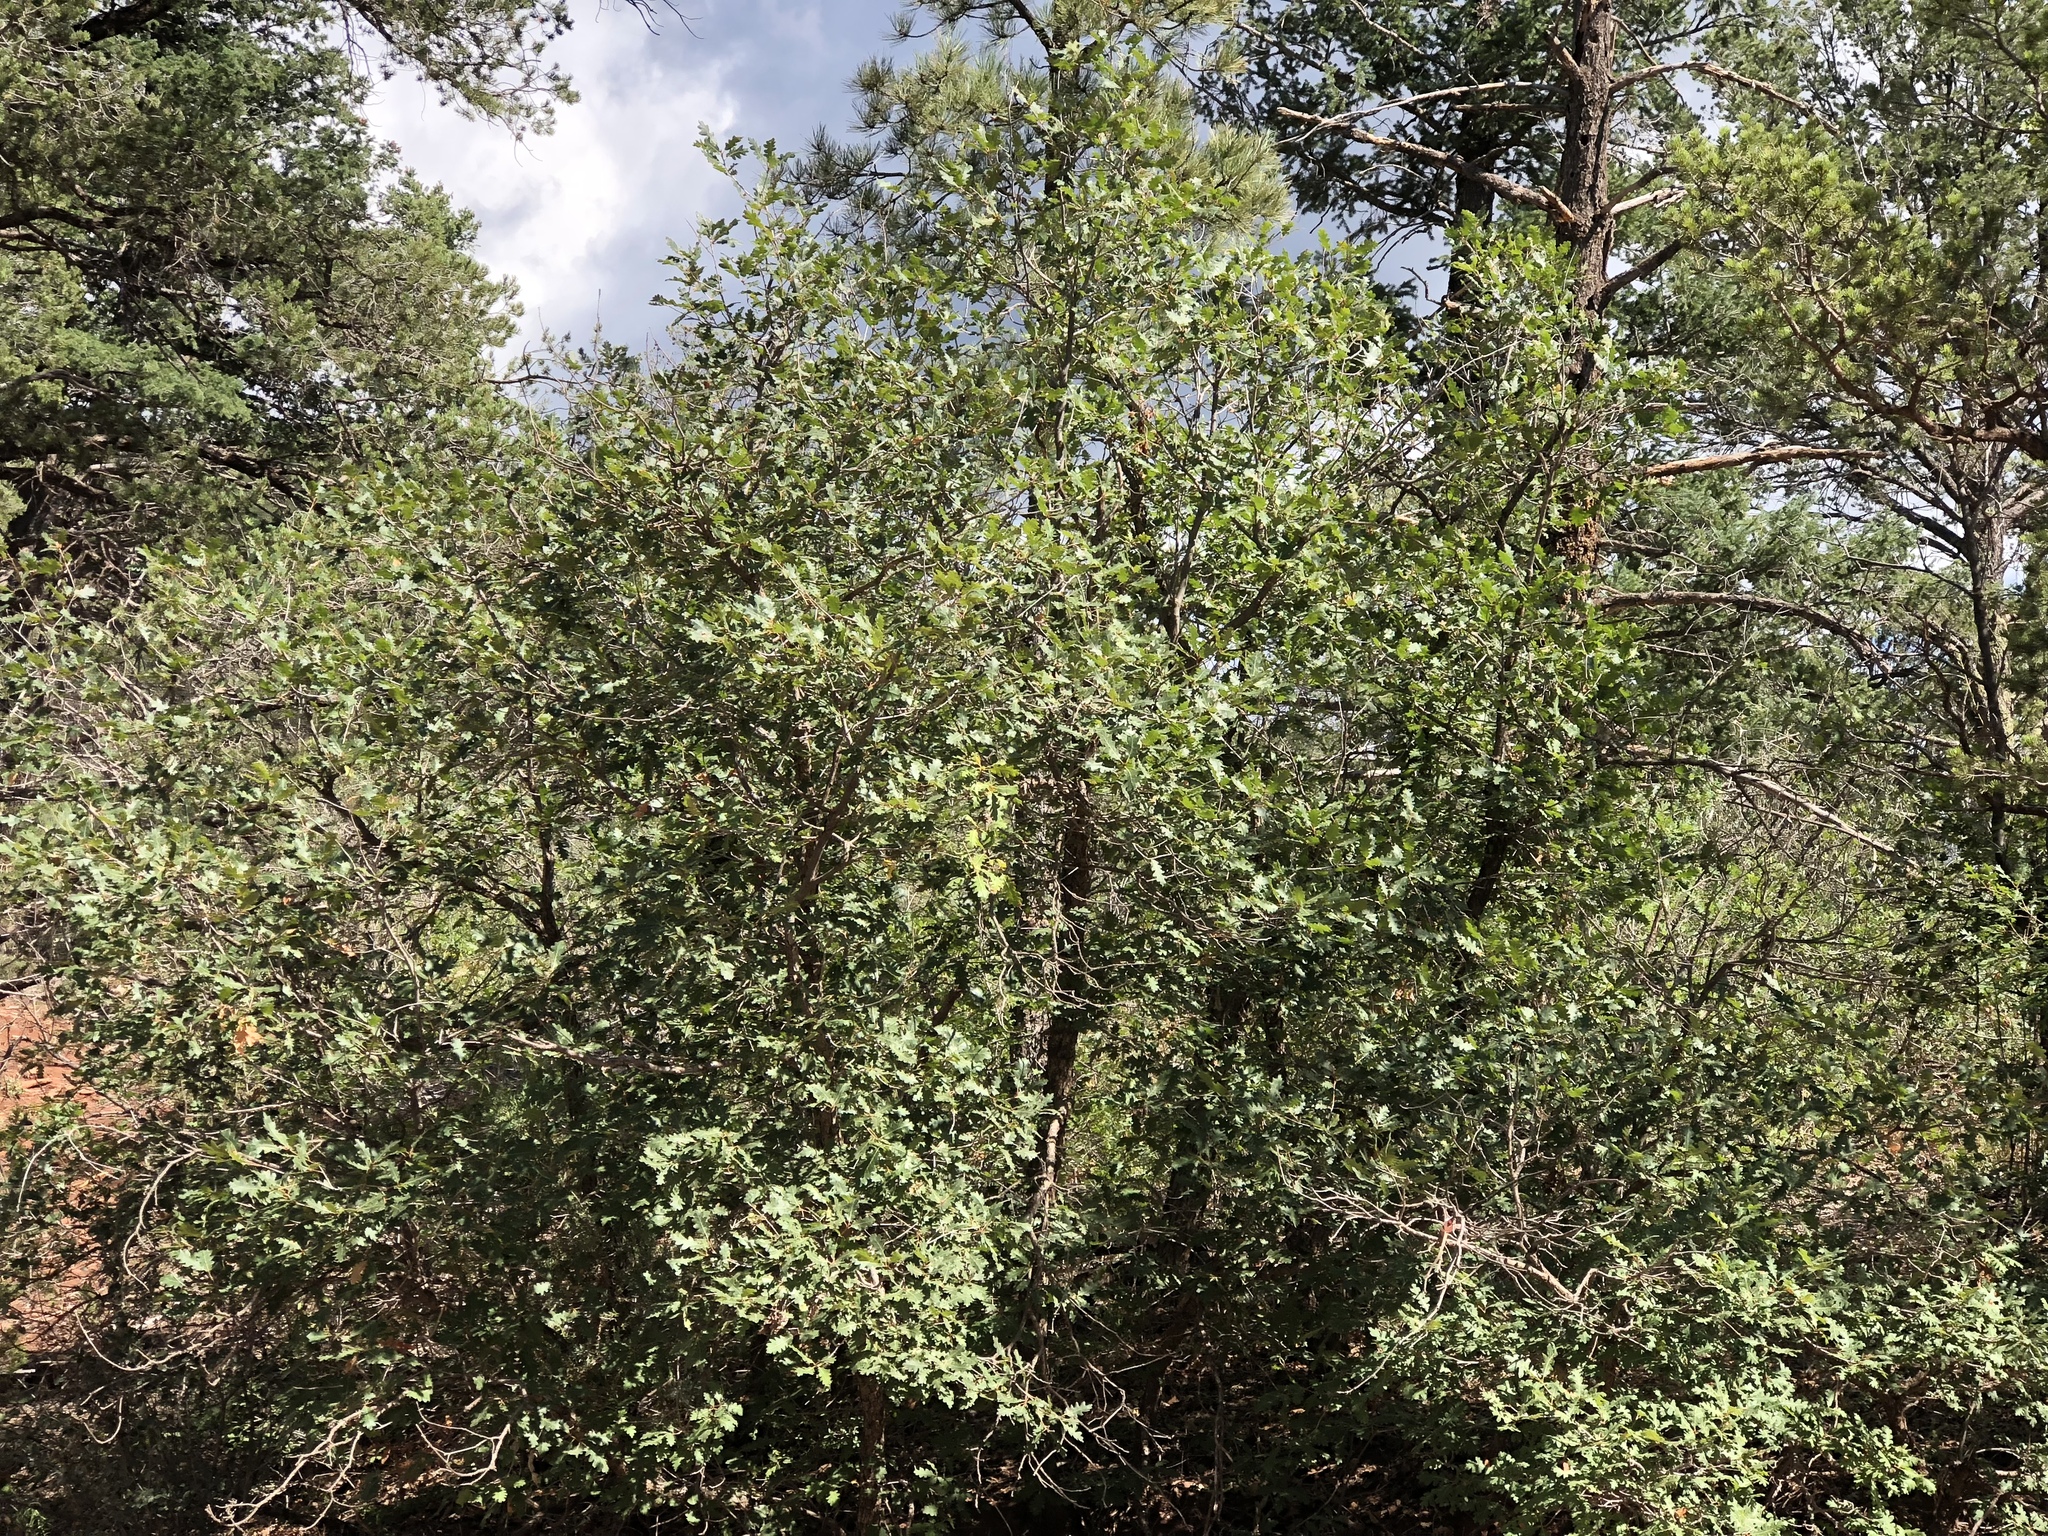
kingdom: Plantae
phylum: Tracheophyta
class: Magnoliopsida
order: Fagales
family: Fagaceae
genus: Quercus
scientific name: Quercus gambelii
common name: Gambel oak
